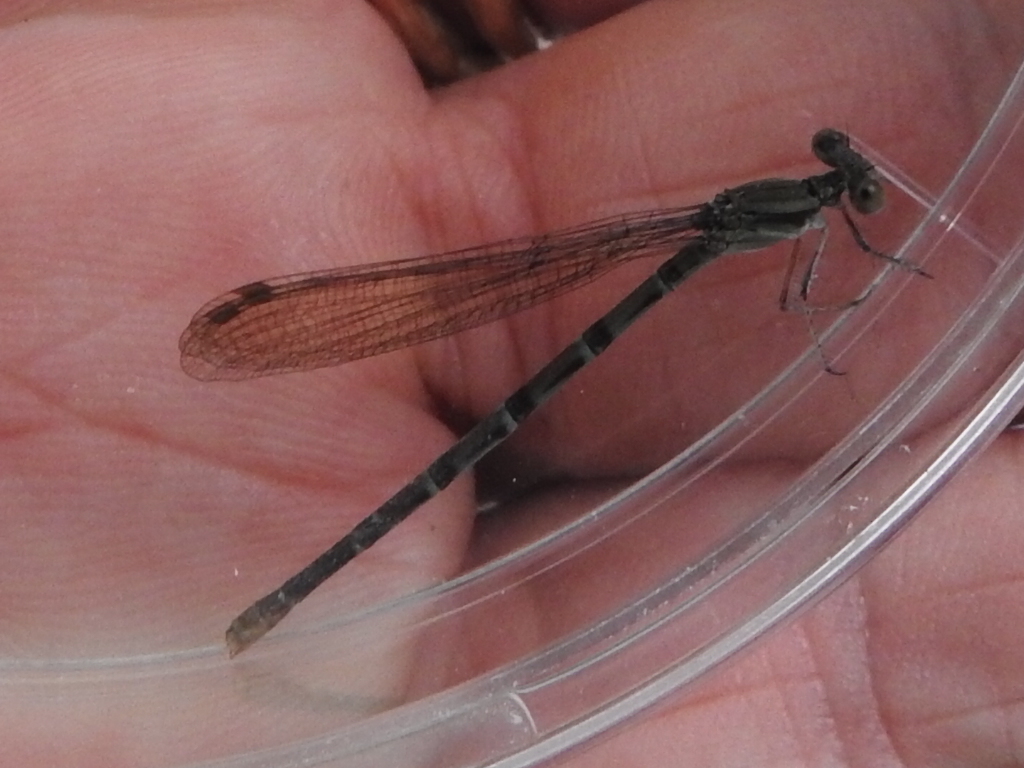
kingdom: Animalia
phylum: Arthropoda
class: Insecta
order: Odonata
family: Coenagrionidae
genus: Argia
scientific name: Argia immunda
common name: Kiowa dancer
